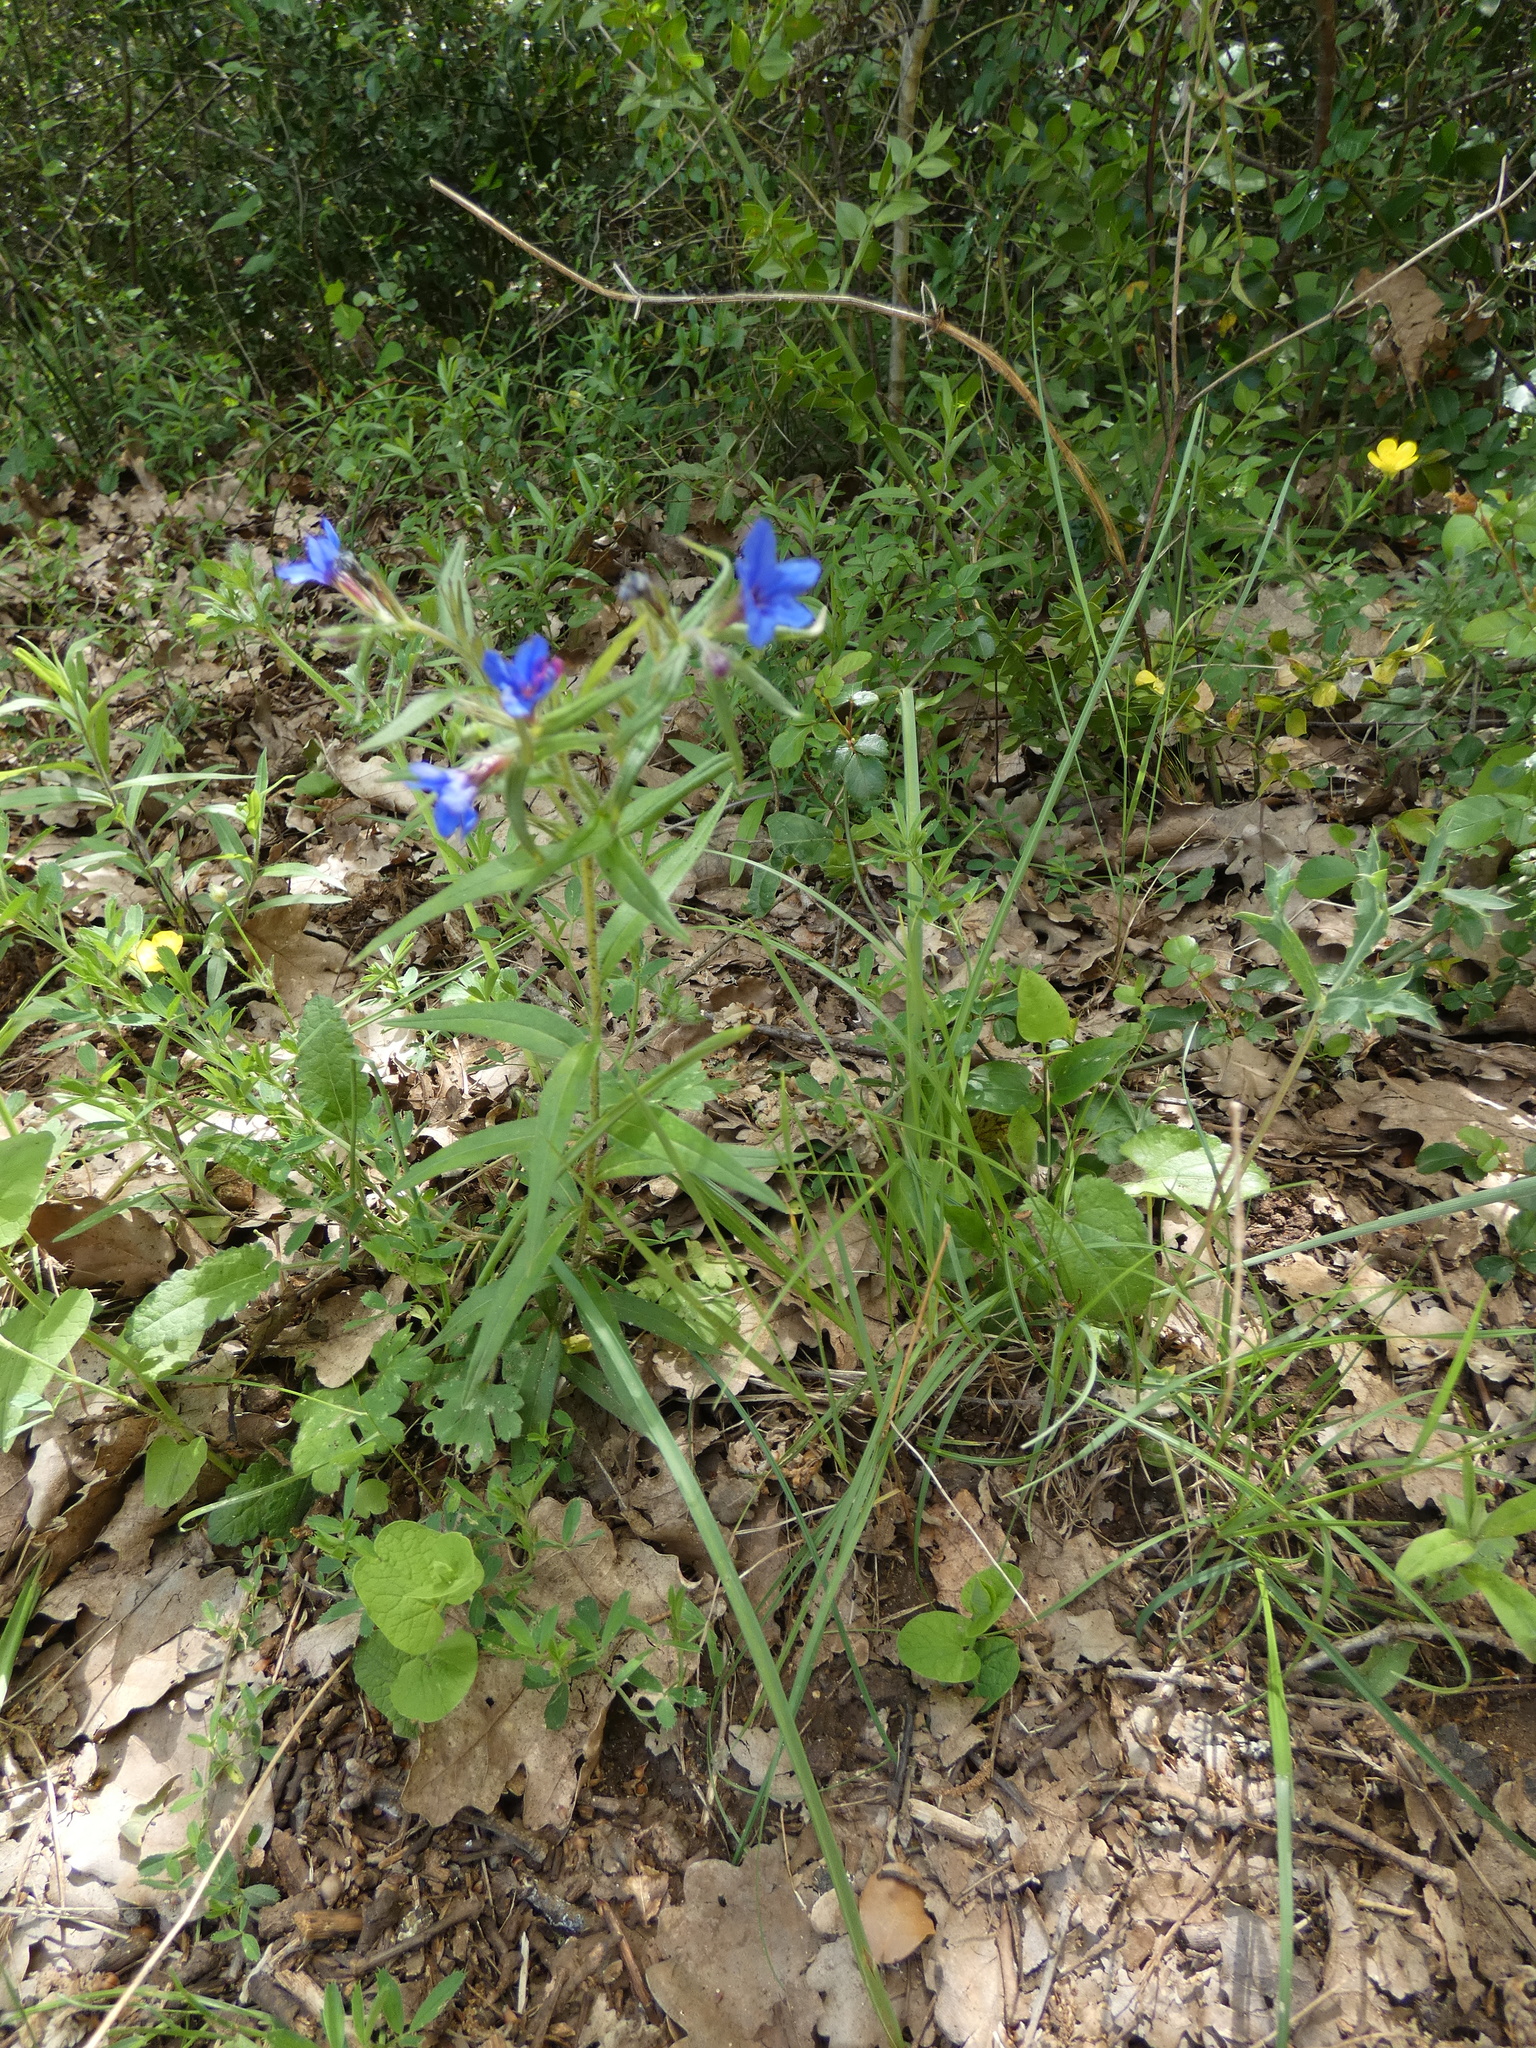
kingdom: Plantae
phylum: Tracheophyta
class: Magnoliopsida
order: Boraginales
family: Boraginaceae
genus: Aegonychon
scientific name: Aegonychon purpurocaeruleum
